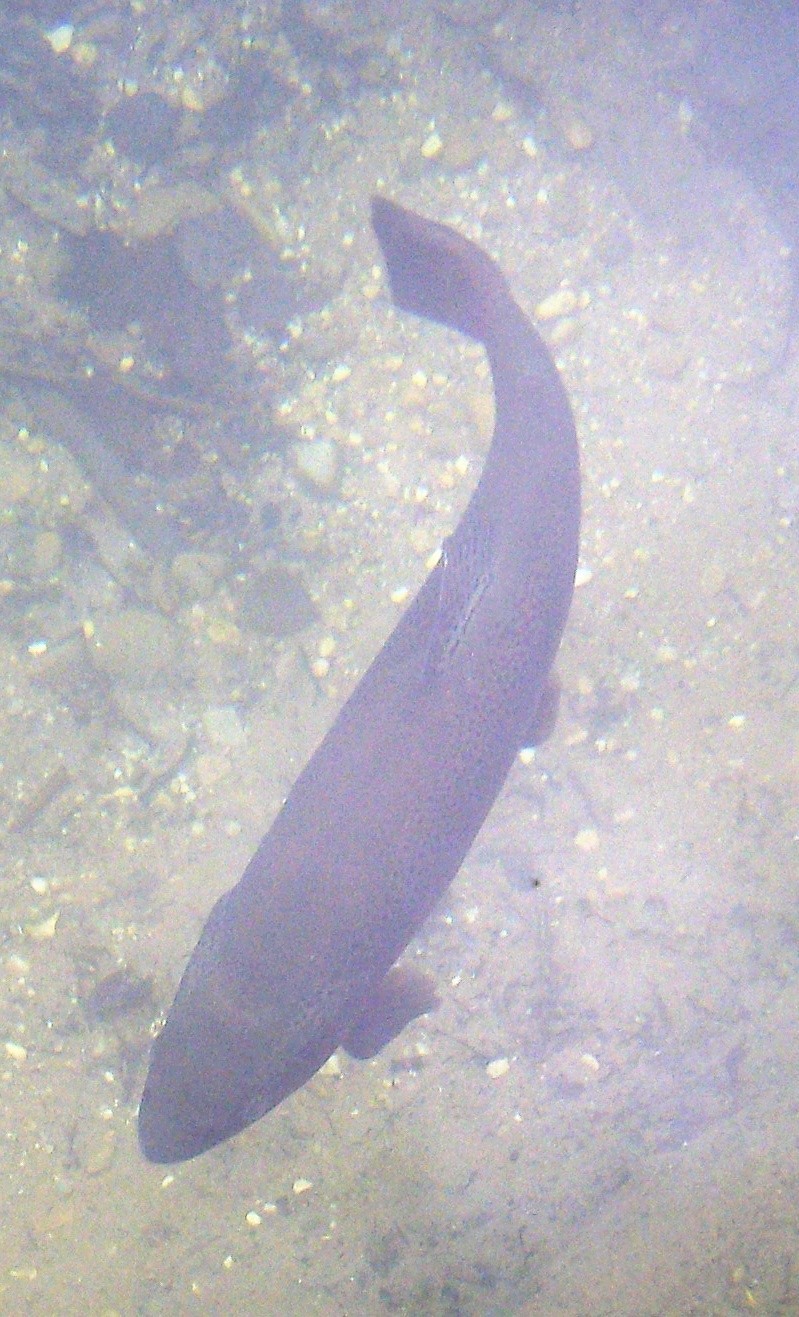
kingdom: Animalia
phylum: Chordata
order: Salmoniformes
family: Salmonidae
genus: Oncorhynchus
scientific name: Oncorhynchus mykiss
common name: Rainbow trout
